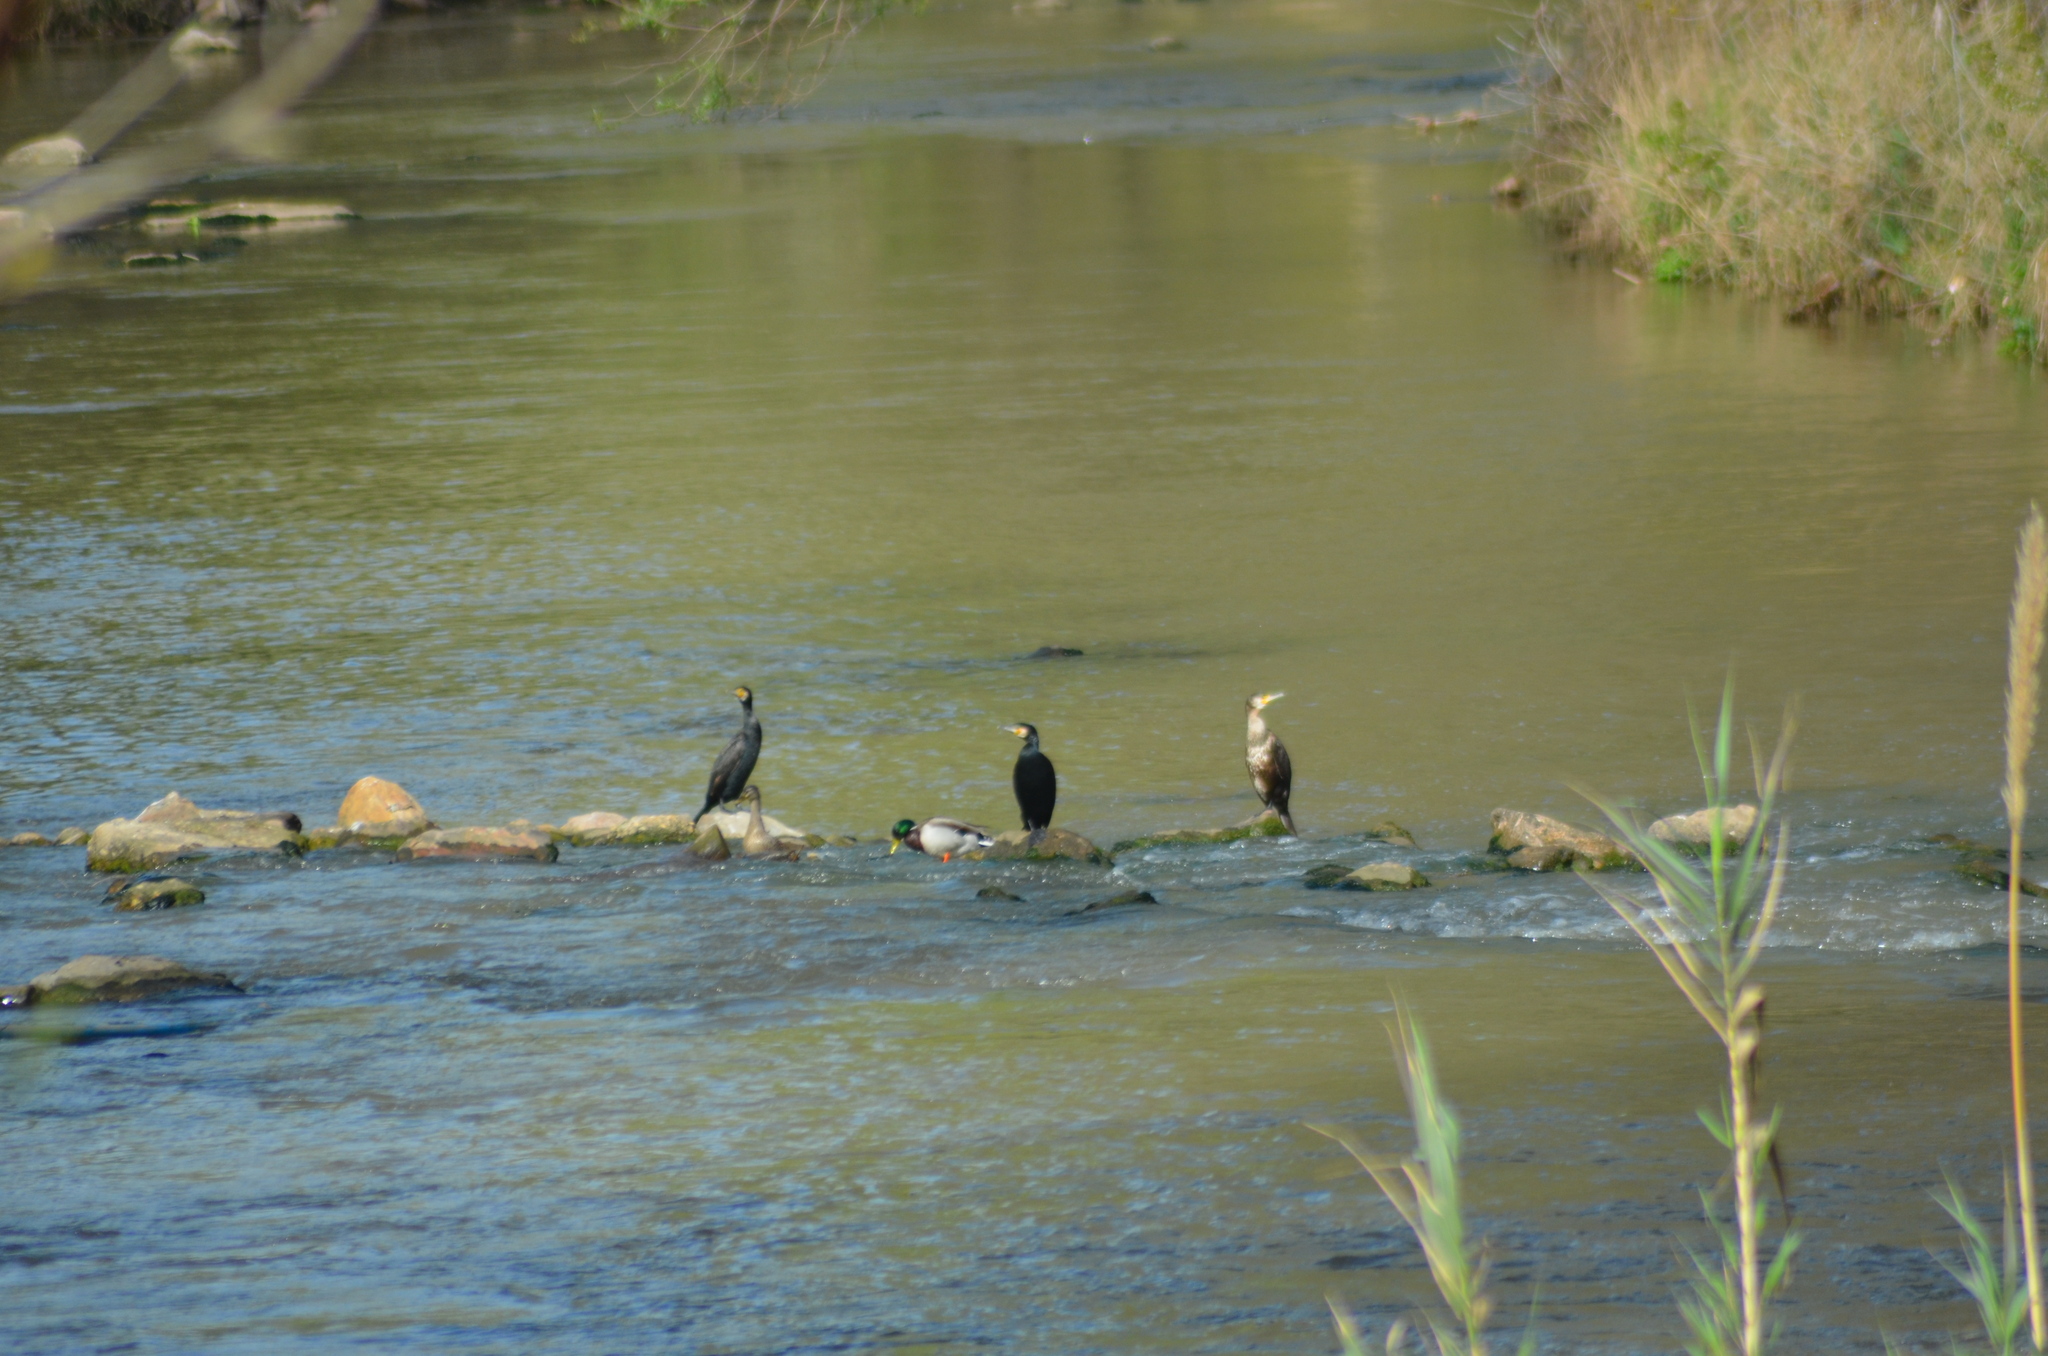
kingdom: Animalia
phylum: Chordata
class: Aves
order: Suliformes
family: Phalacrocoracidae
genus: Phalacrocorax
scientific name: Phalacrocorax carbo
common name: Great cormorant
